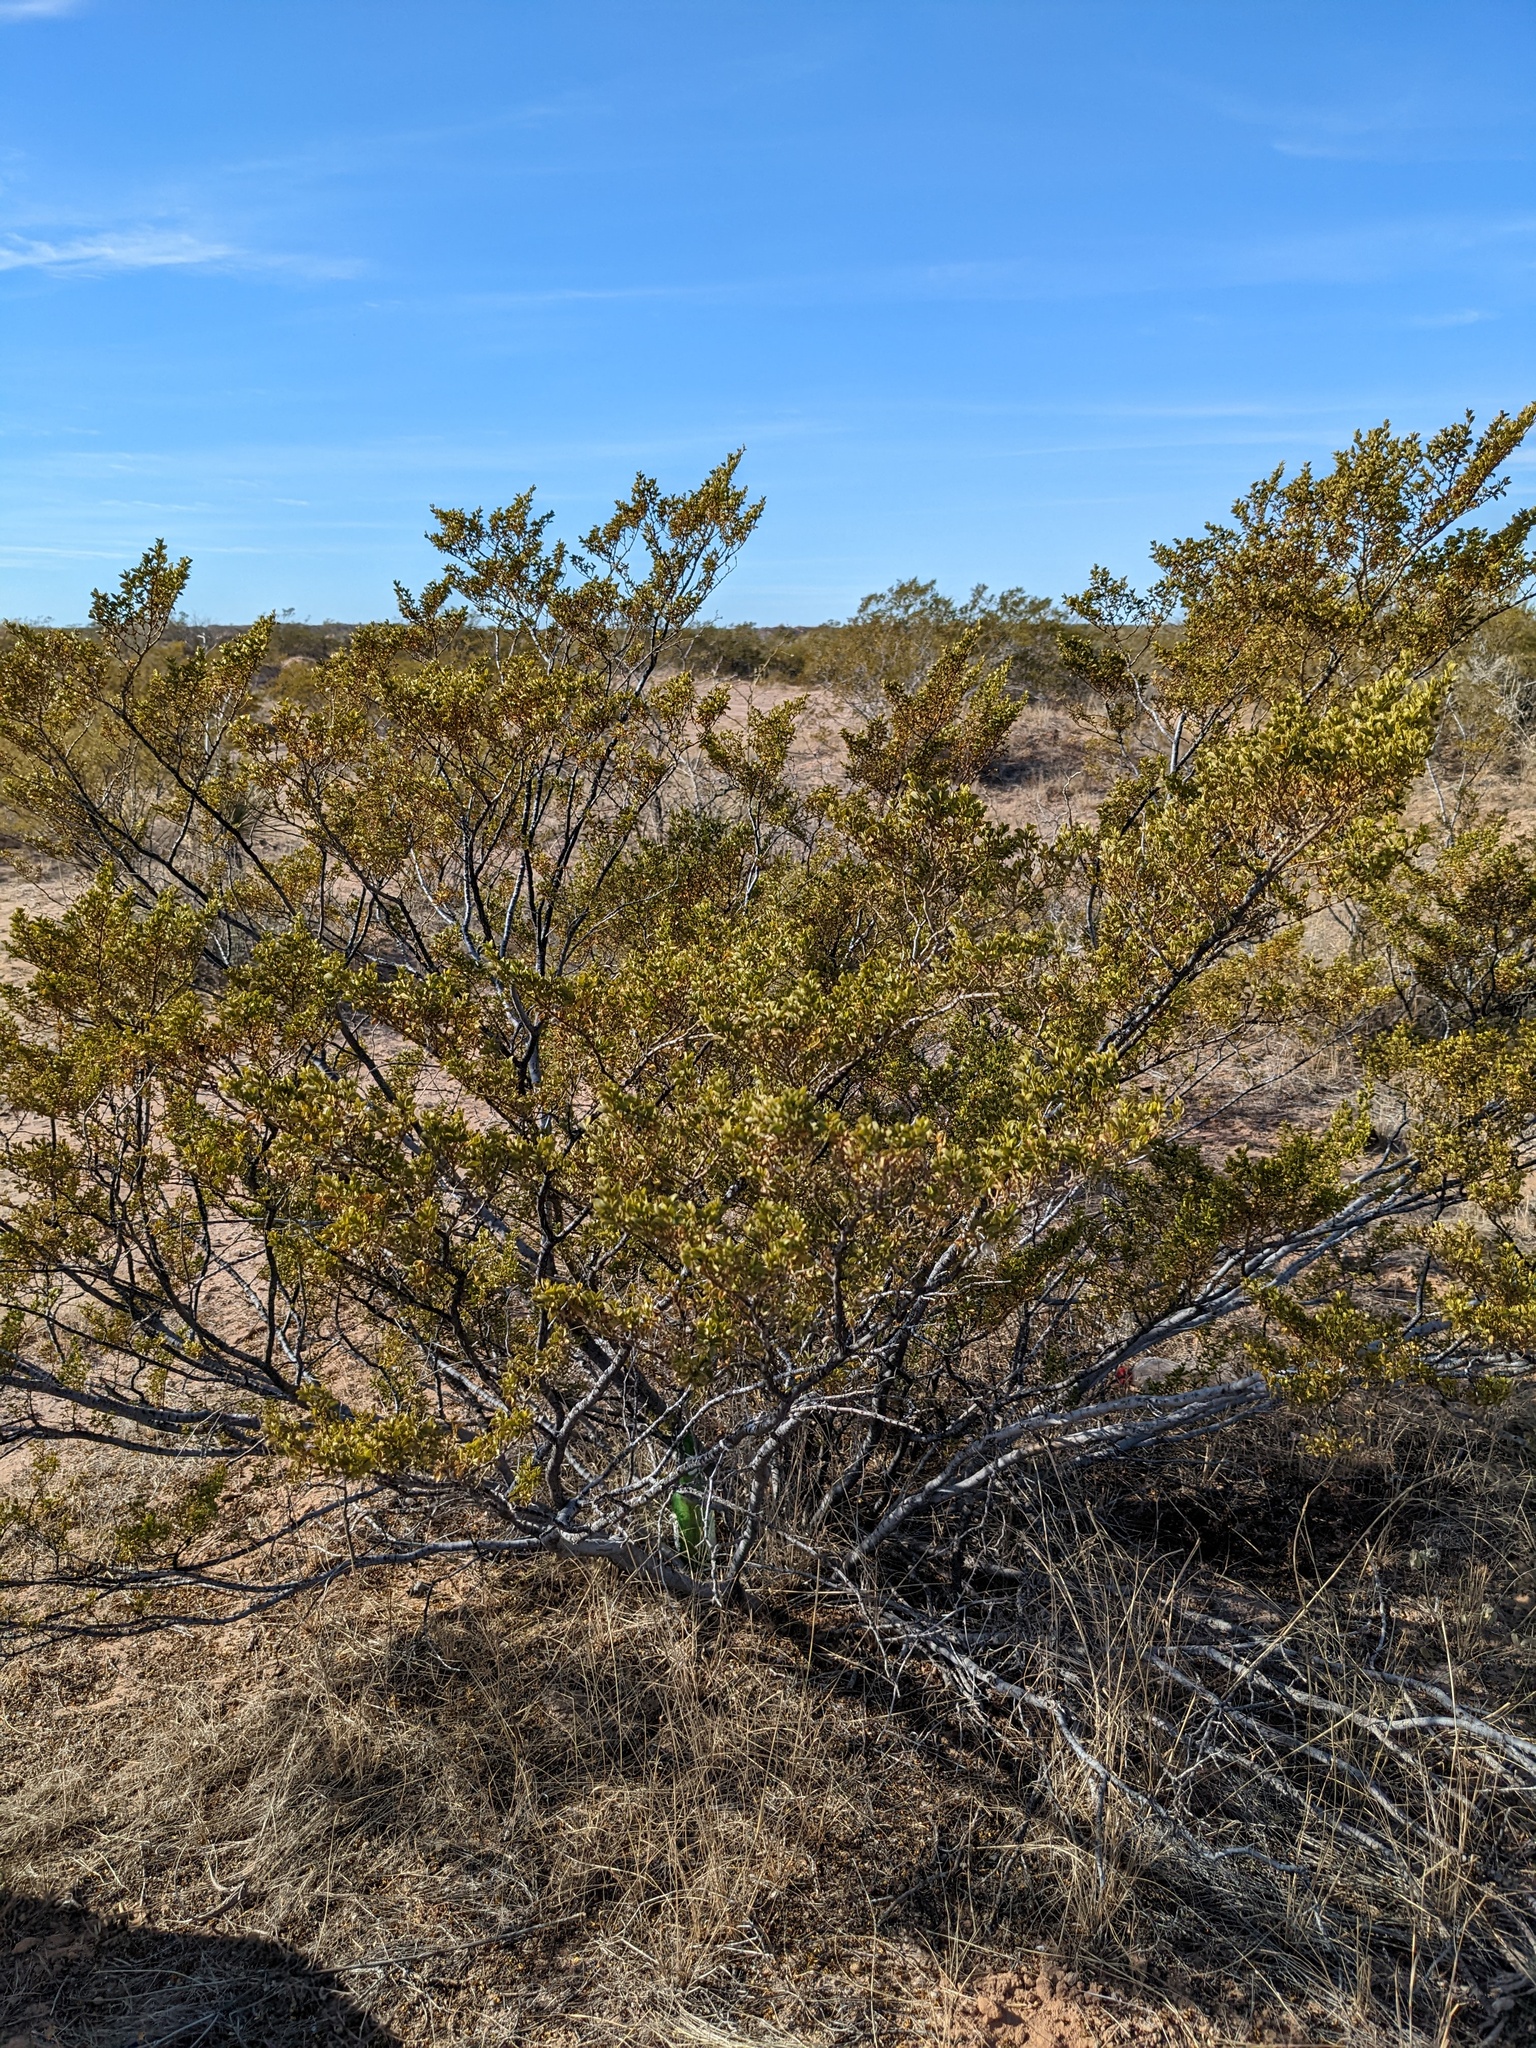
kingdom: Plantae
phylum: Tracheophyta
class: Magnoliopsida
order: Zygophyllales
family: Zygophyllaceae
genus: Larrea
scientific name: Larrea tridentata
